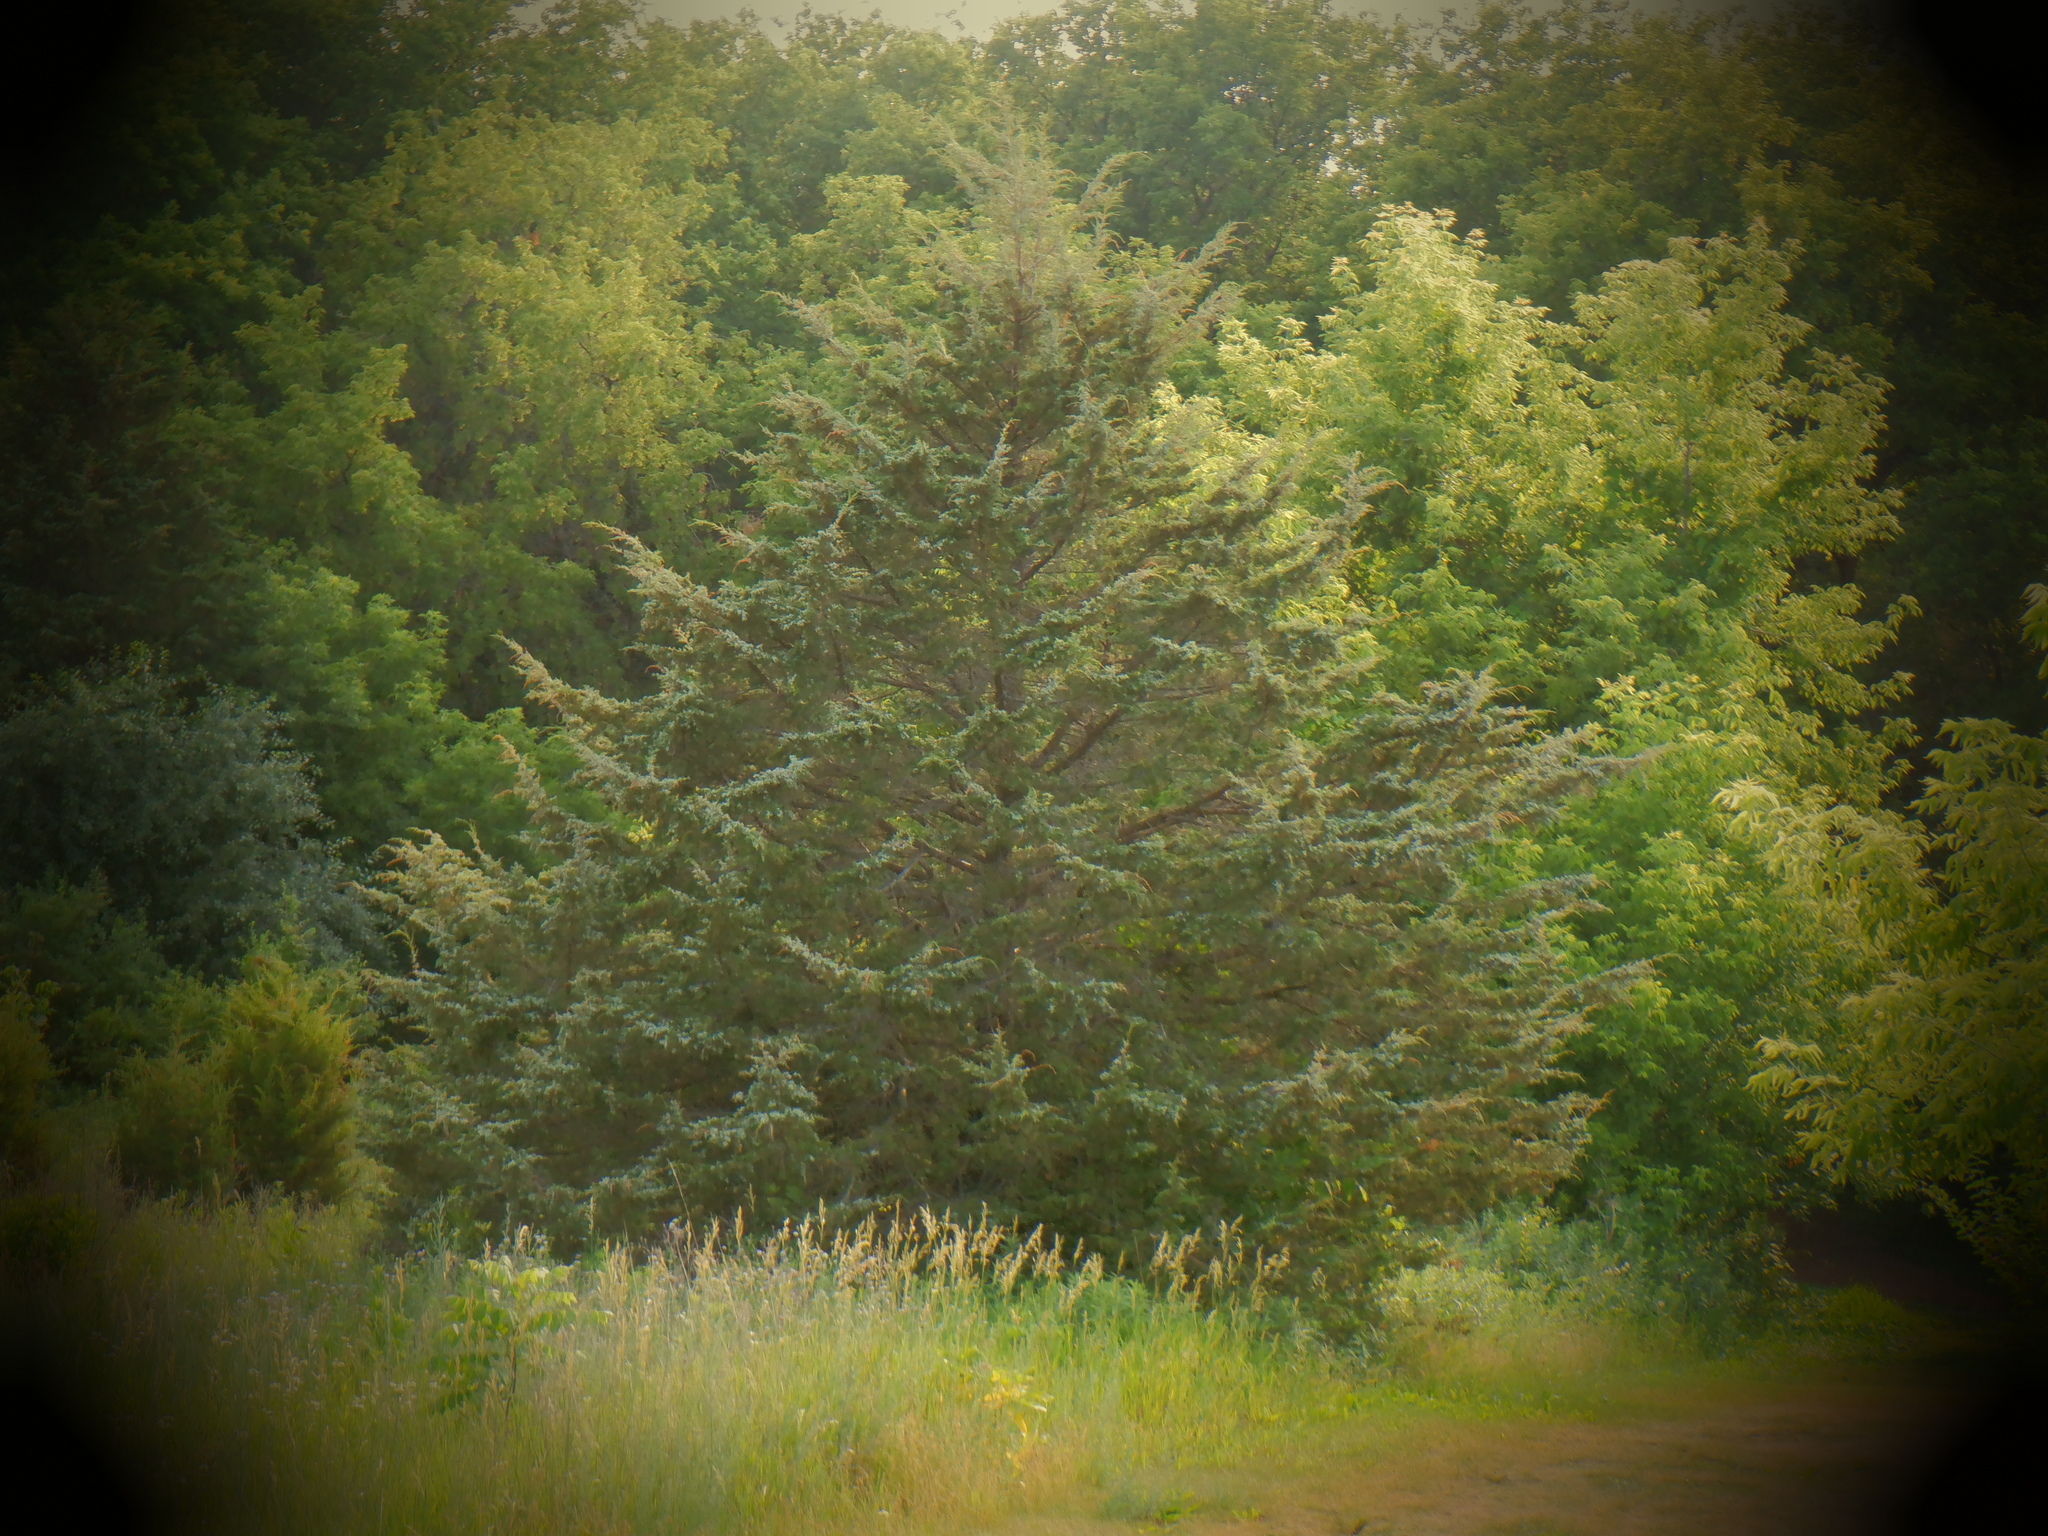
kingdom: Plantae
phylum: Tracheophyta
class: Pinopsida
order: Pinales
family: Cupressaceae
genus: Juniperus
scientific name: Juniperus virginiana
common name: Red juniper
